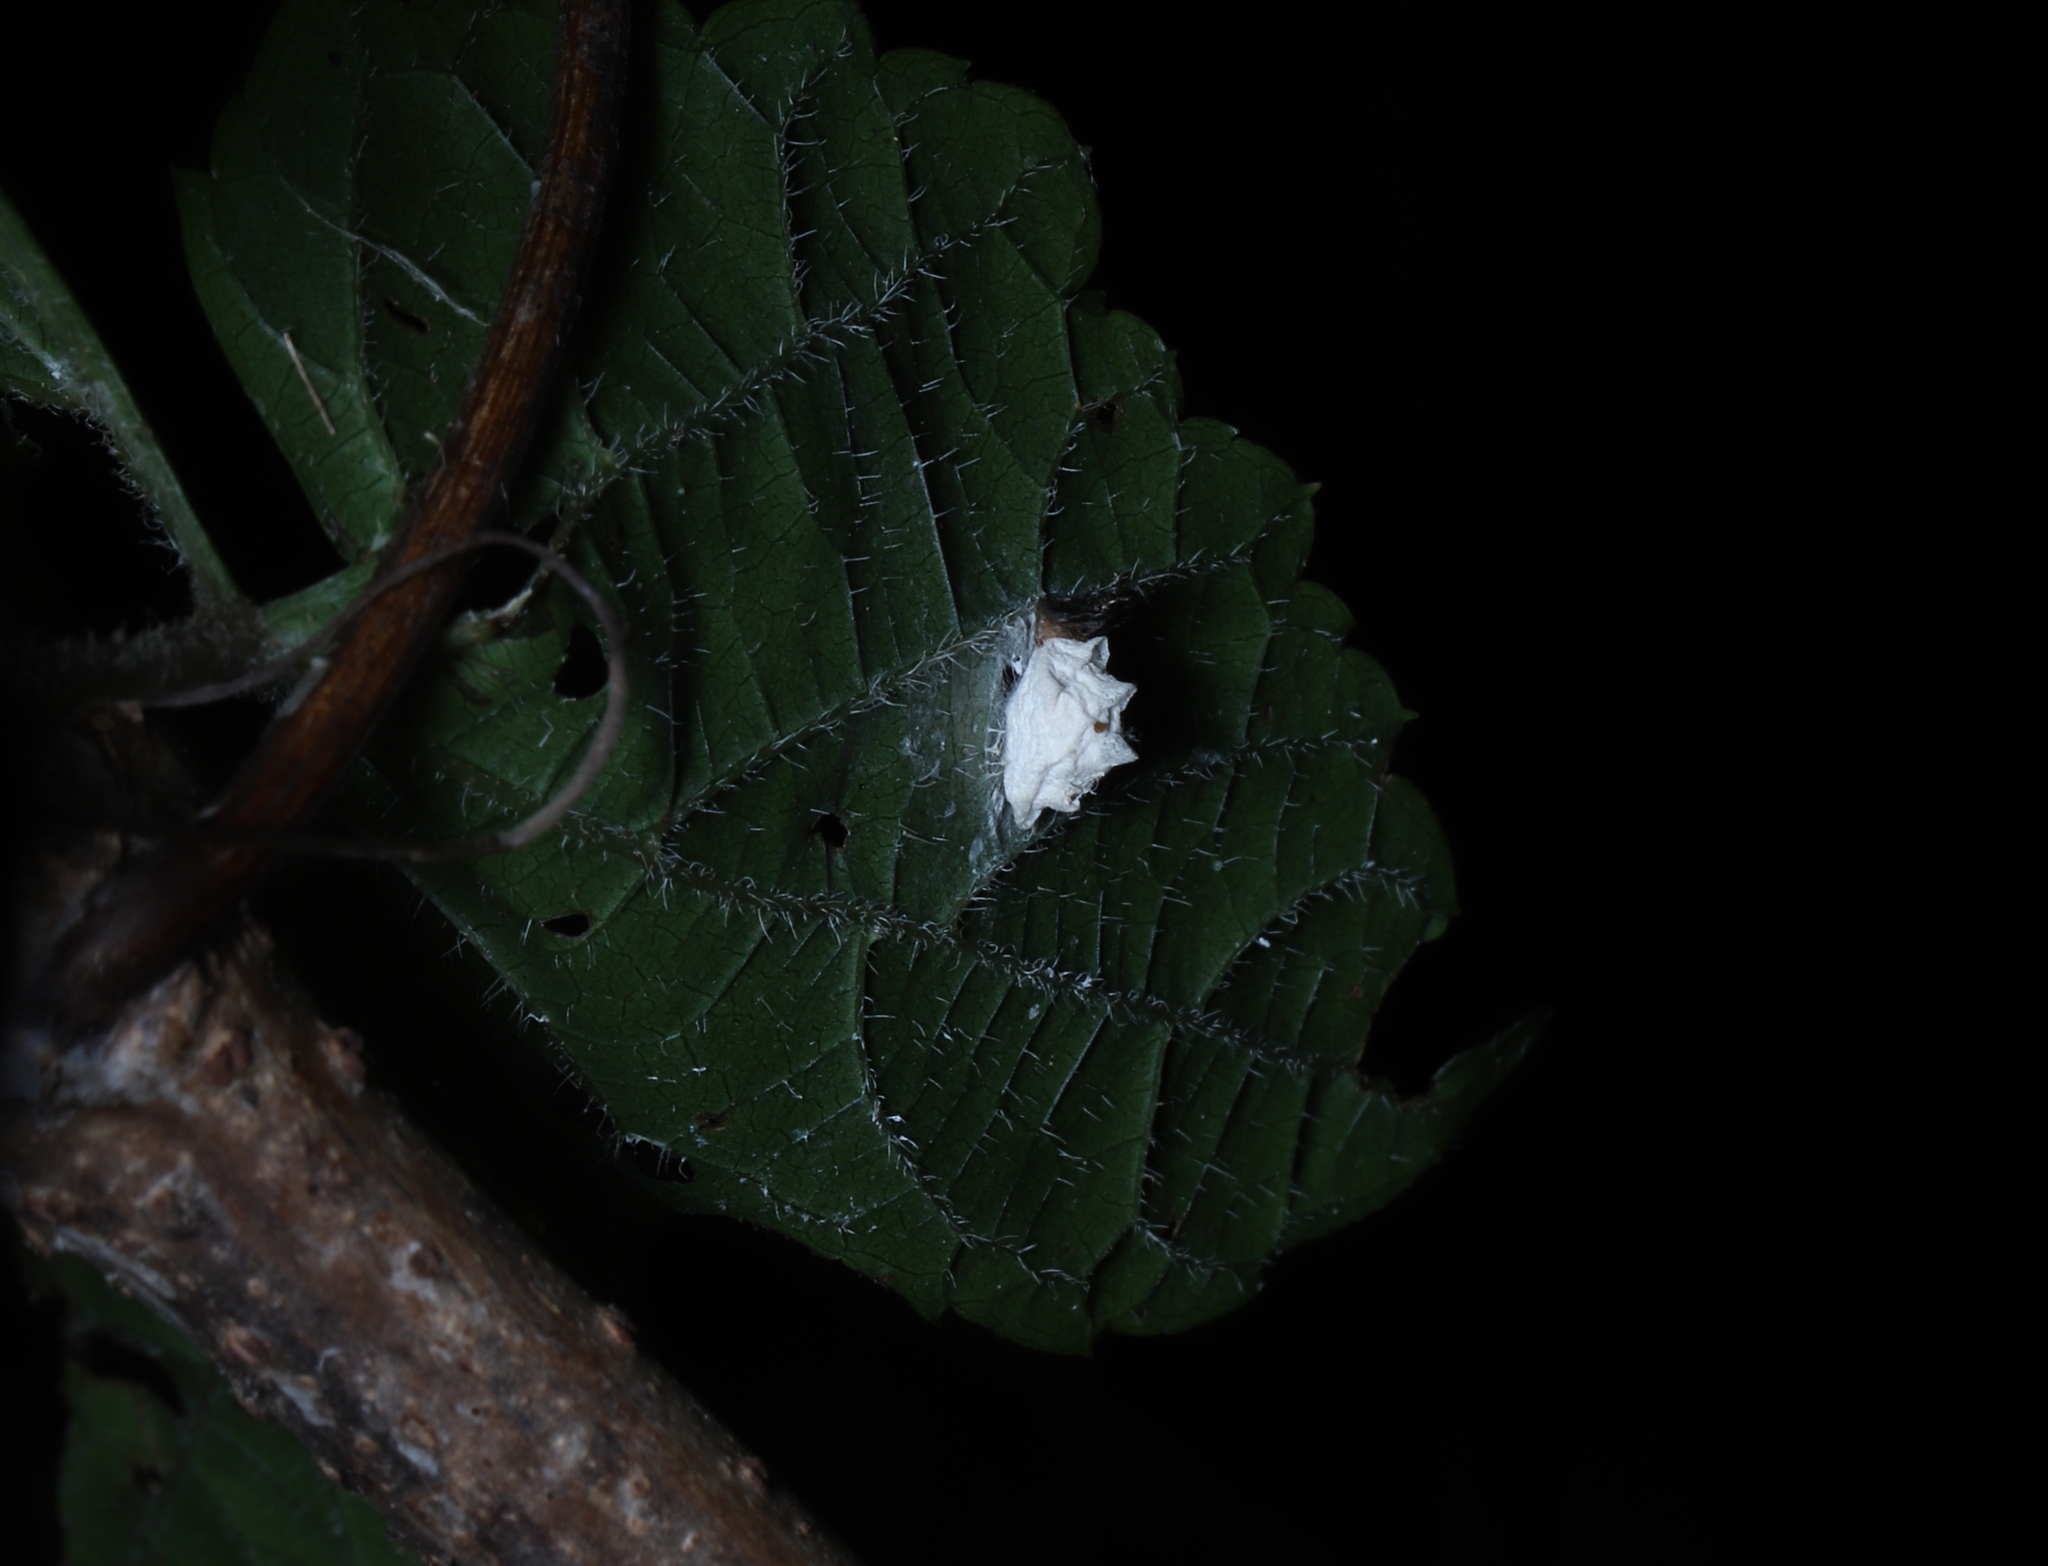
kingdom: Animalia
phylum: Arthropoda
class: Insecta
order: Lepidoptera
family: Epipyropidae
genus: Fulgoraecia
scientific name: Fulgoraecia exigua
